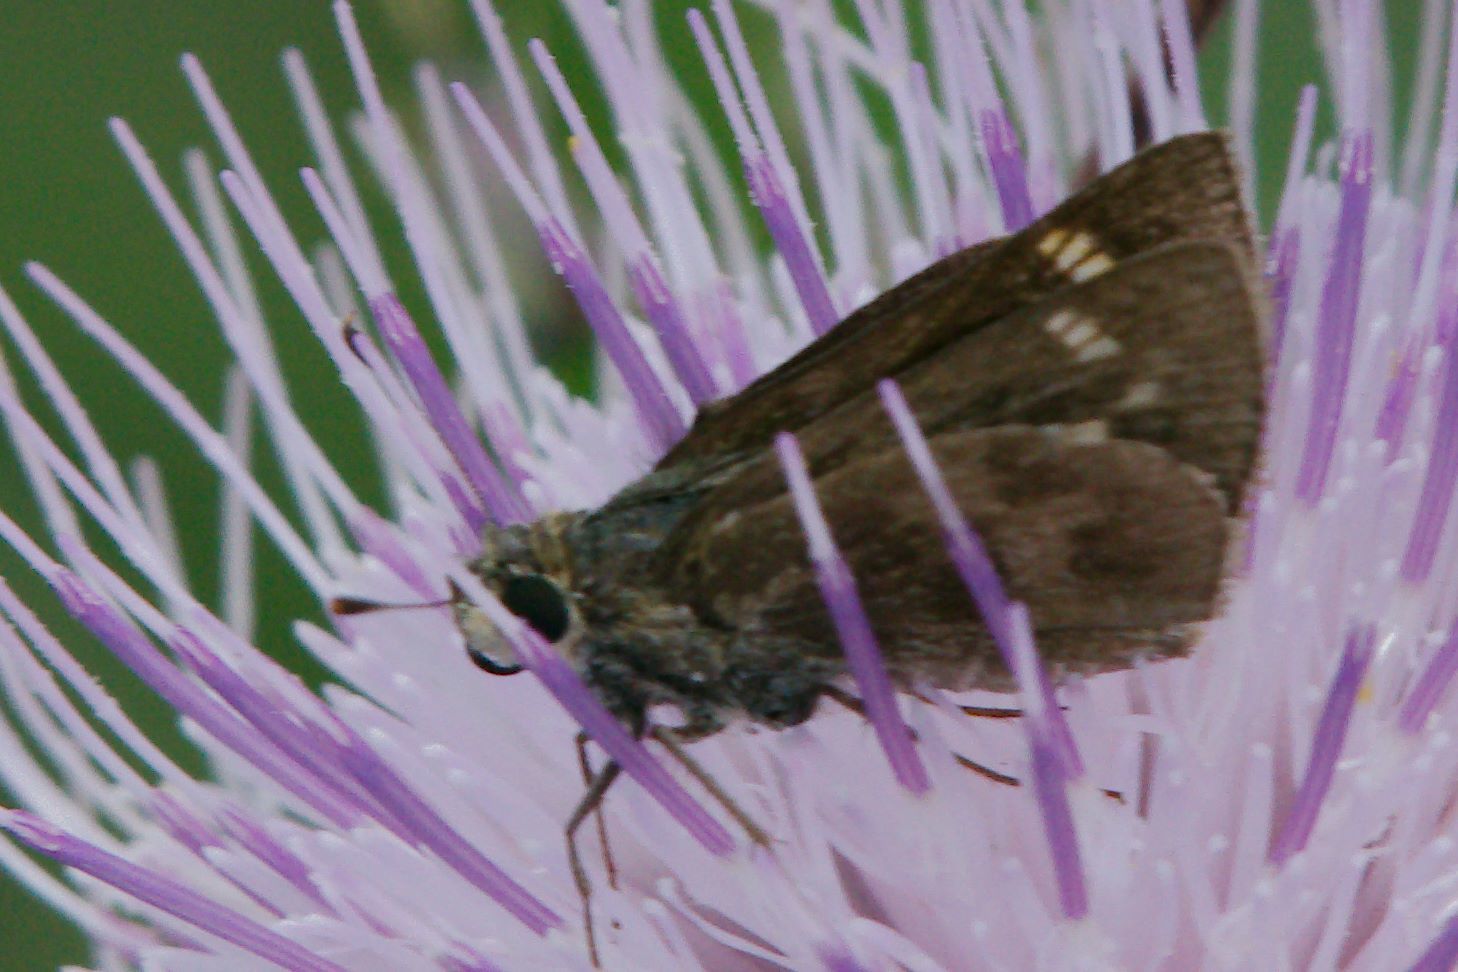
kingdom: Animalia
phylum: Arthropoda
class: Insecta
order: Lepidoptera
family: Hesperiidae
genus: Polites
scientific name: Polites vibex
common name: Whirlabout
